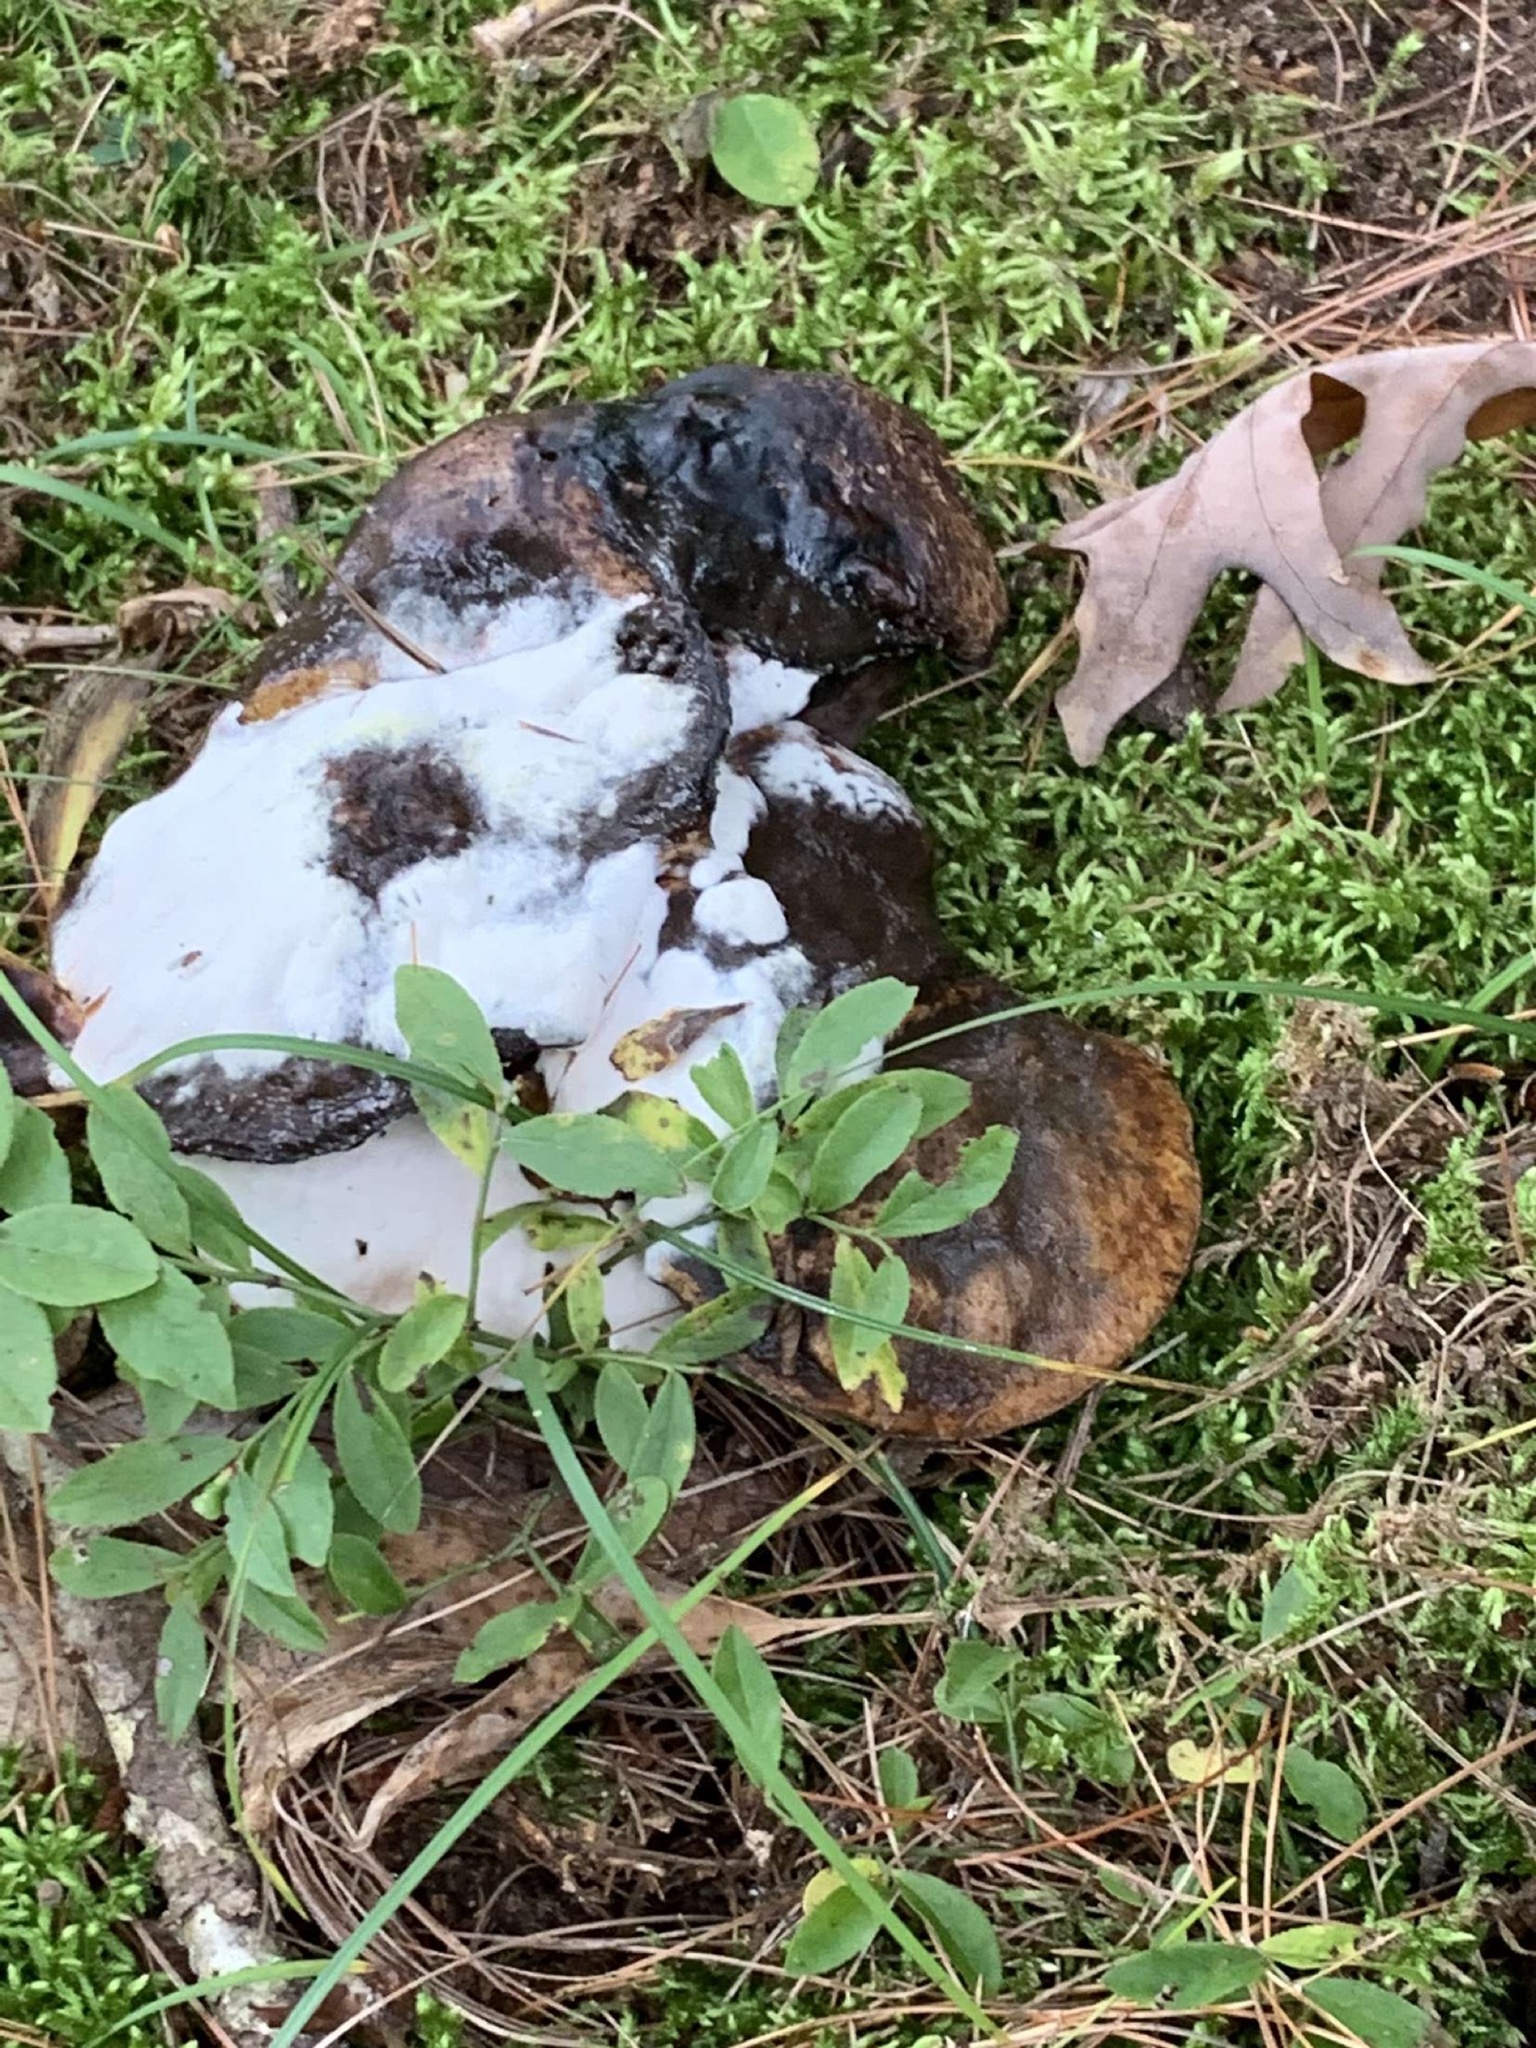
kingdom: Fungi
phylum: Ascomycota
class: Sordariomycetes
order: Hypocreales
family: Hypocreaceae
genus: Hypomyces
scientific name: Hypomyces chrysospermus
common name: Bolete mould
